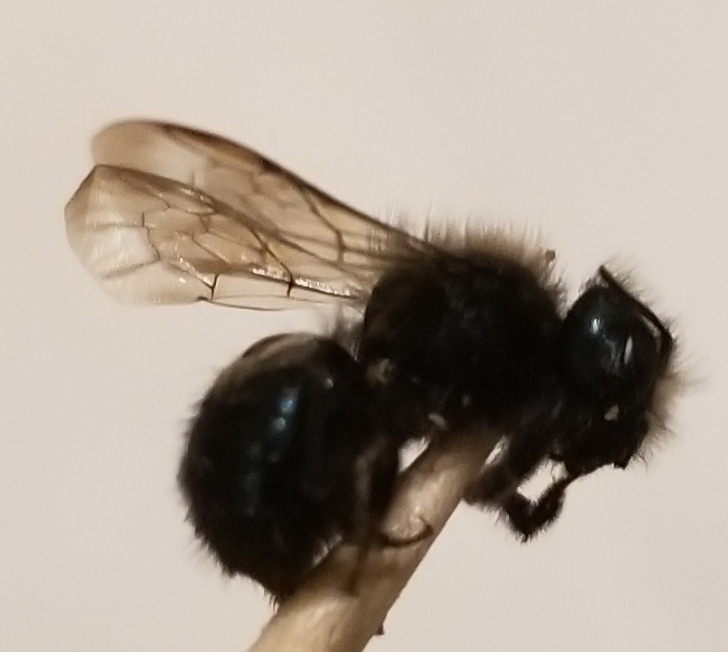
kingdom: Animalia
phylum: Arthropoda
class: Insecta
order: Hymenoptera
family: Megachilidae
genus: Osmia
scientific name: Osmia lignaria
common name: Blue orchard bee
